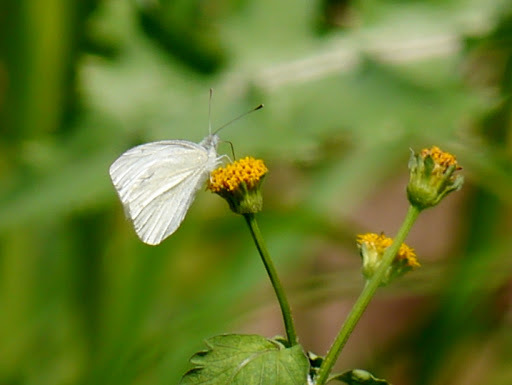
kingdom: Animalia
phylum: Arthropoda
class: Insecta
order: Lepidoptera
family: Pieridae
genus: Pieris
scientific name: Pieris rapae
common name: Small white
